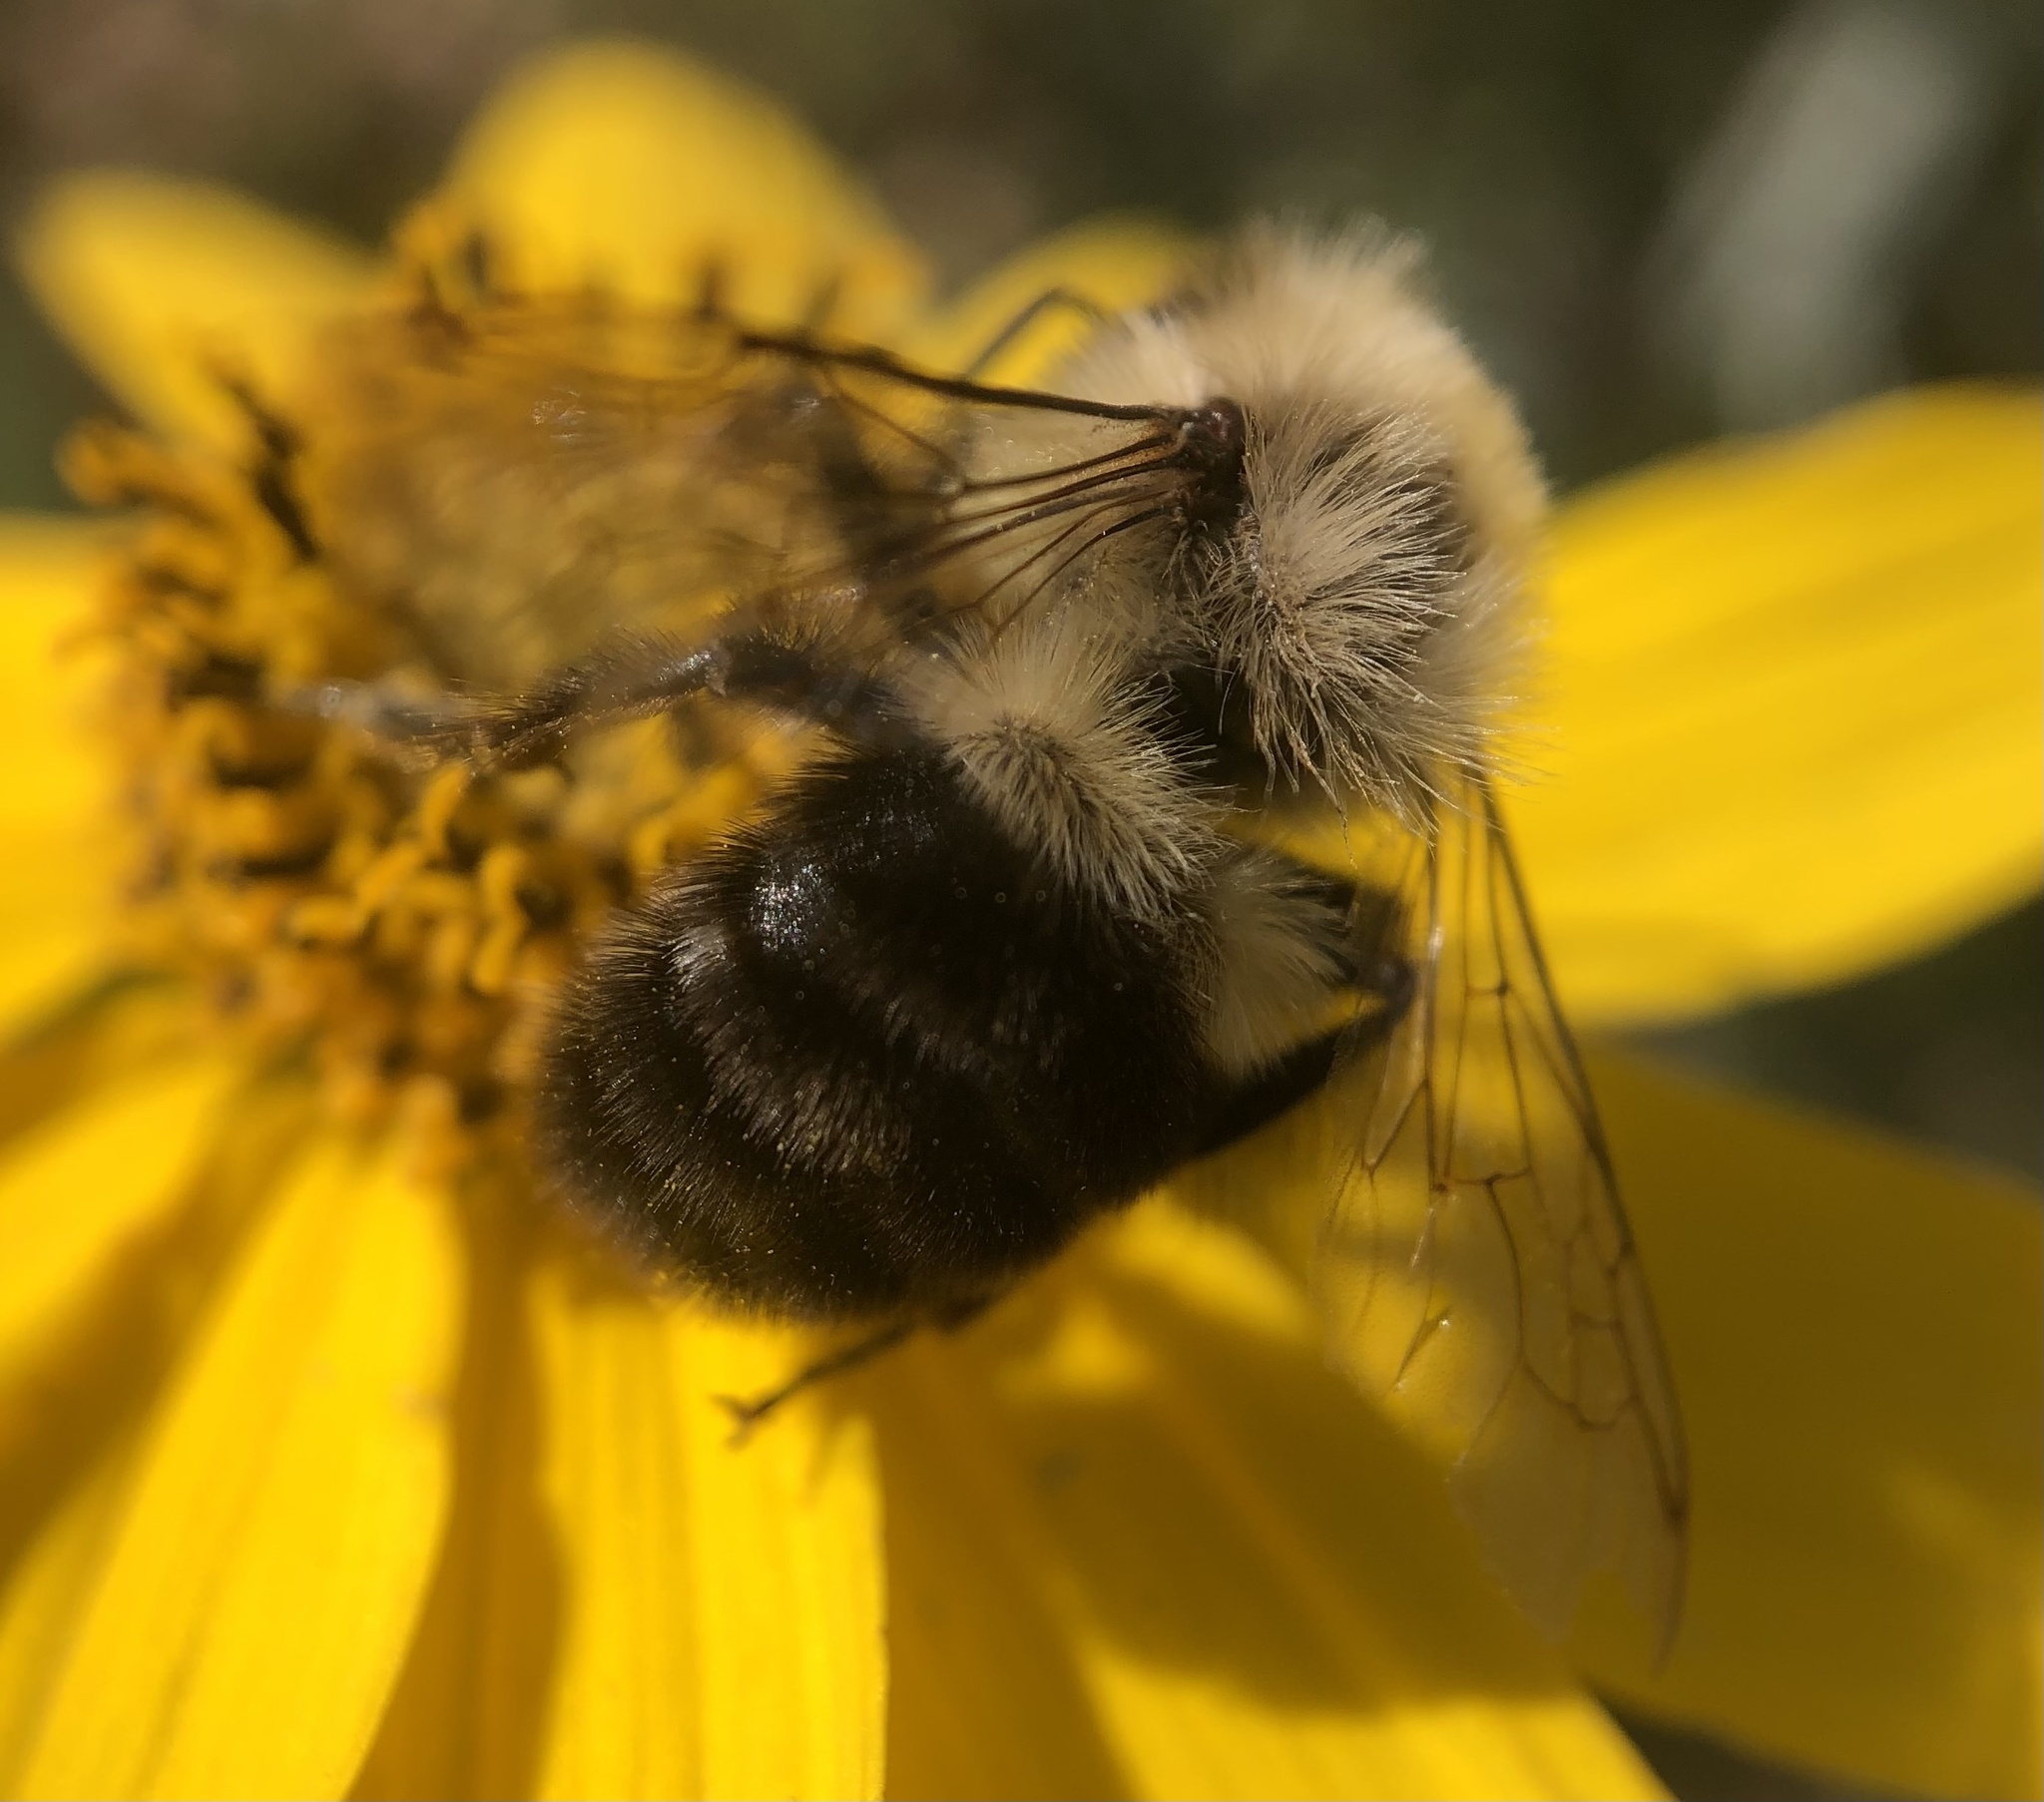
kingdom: Animalia
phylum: Arthropoda
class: Insecta
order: Hymenoptera
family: Apidae
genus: Bombus
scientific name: Bombus impatiens
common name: Common eastern bumble bee
